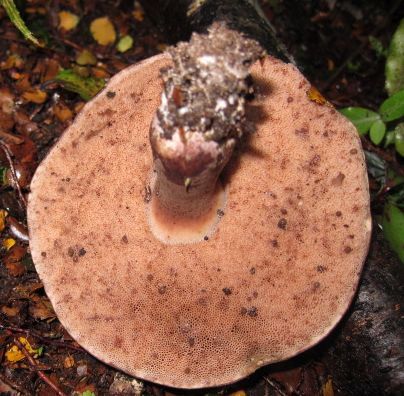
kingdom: Fungi
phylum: Basidiomycota
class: Agaricomycetes
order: Boletales
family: Boletaceae
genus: Porphyrellus
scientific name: Porphyrellus formosus
